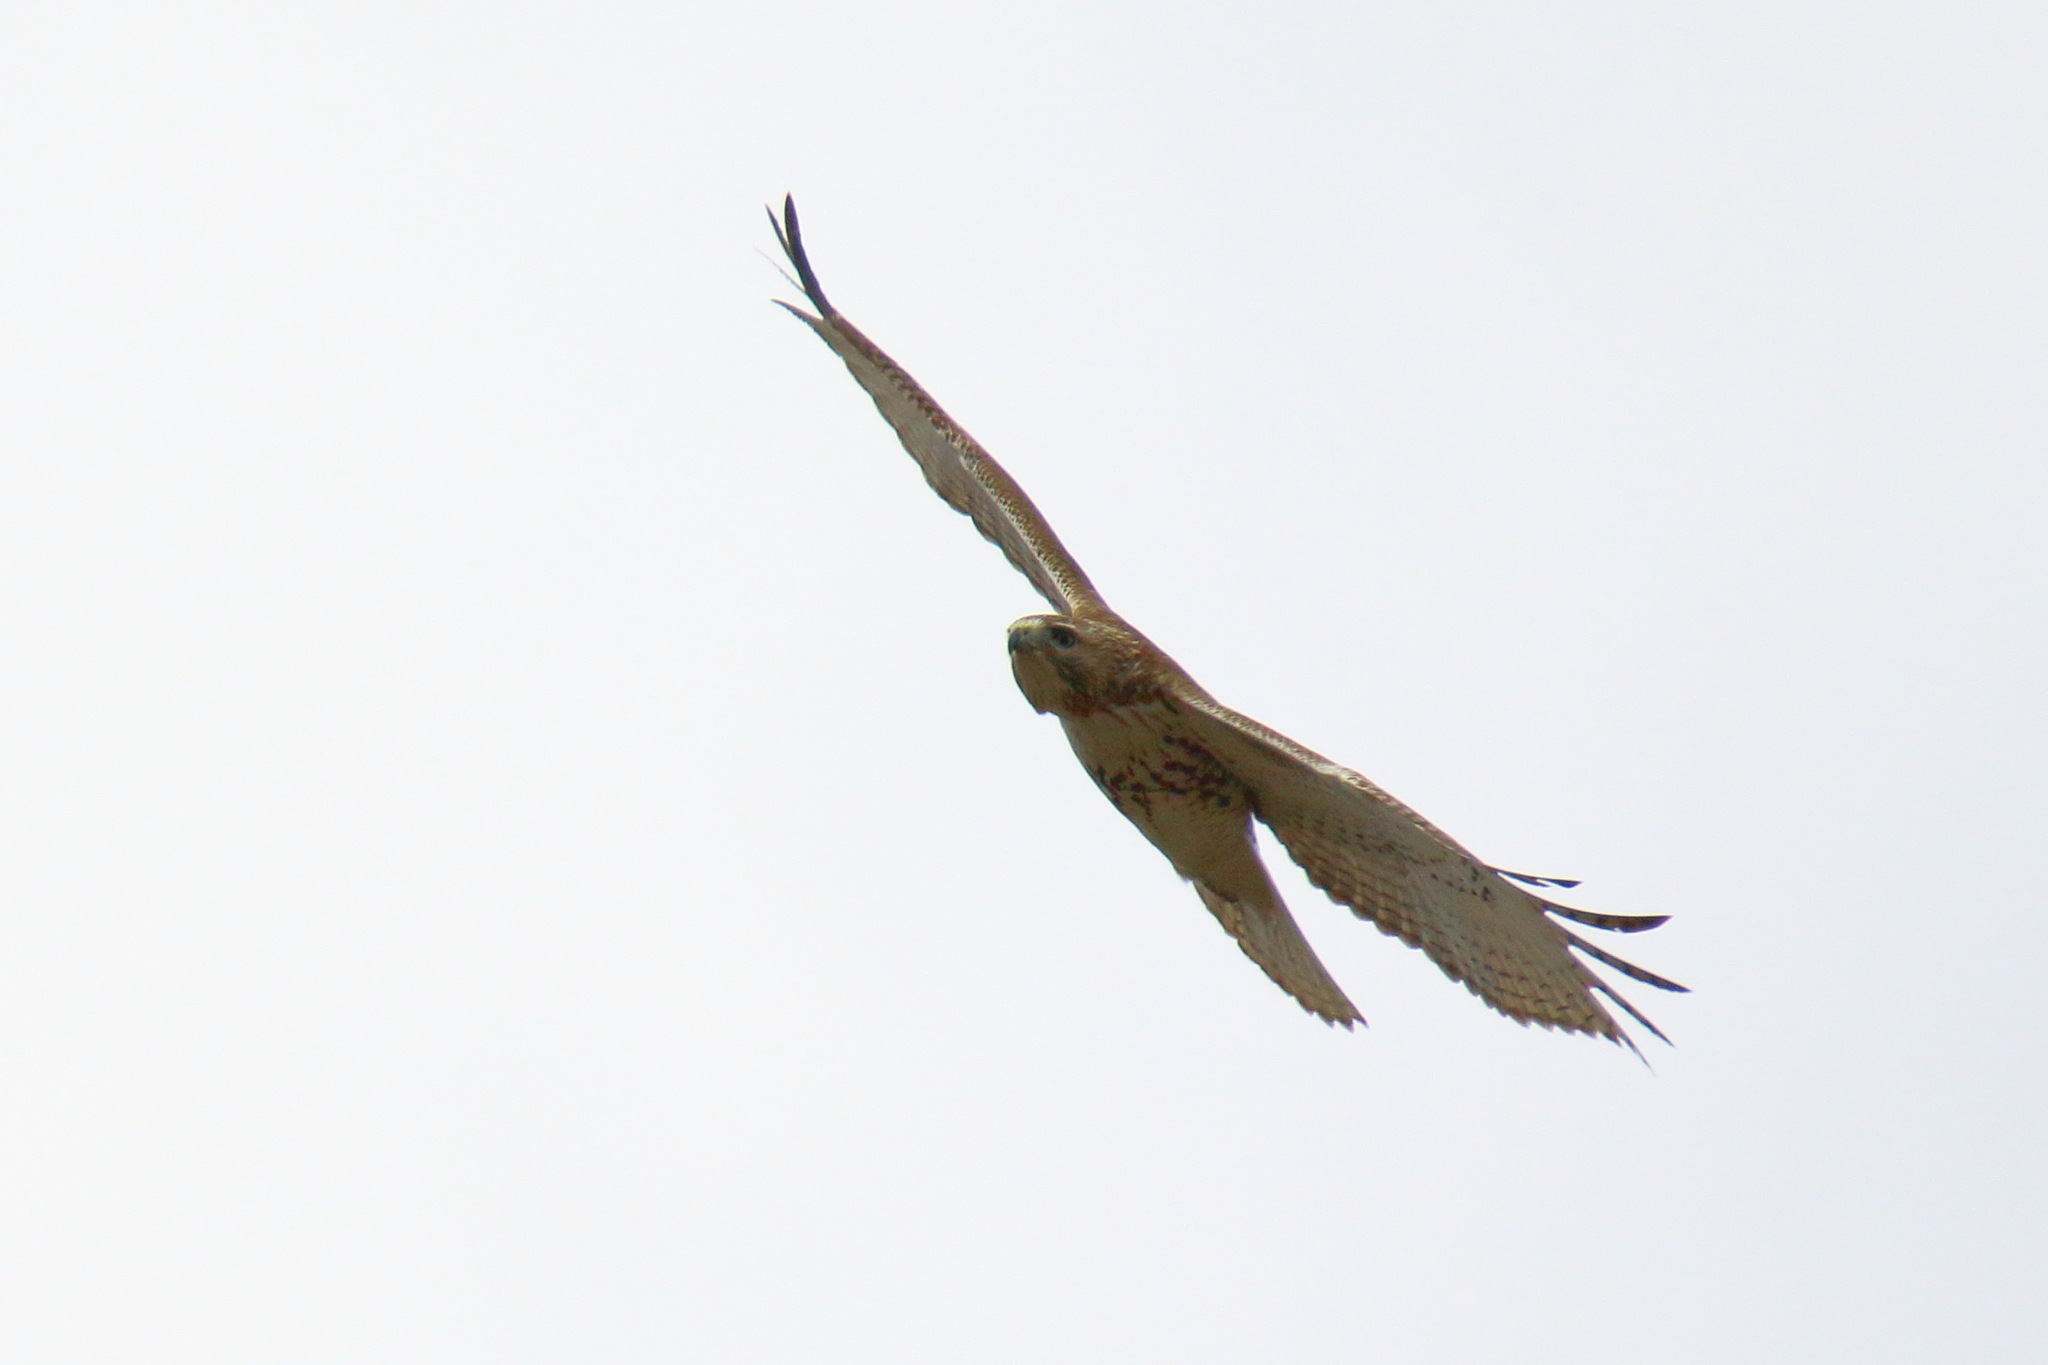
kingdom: Animalia
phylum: Chordata
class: Aves
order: Accipitriformes
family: Accipitridae
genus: Buteo
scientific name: Buteo jamaicensis
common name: Red-tailed hawk
